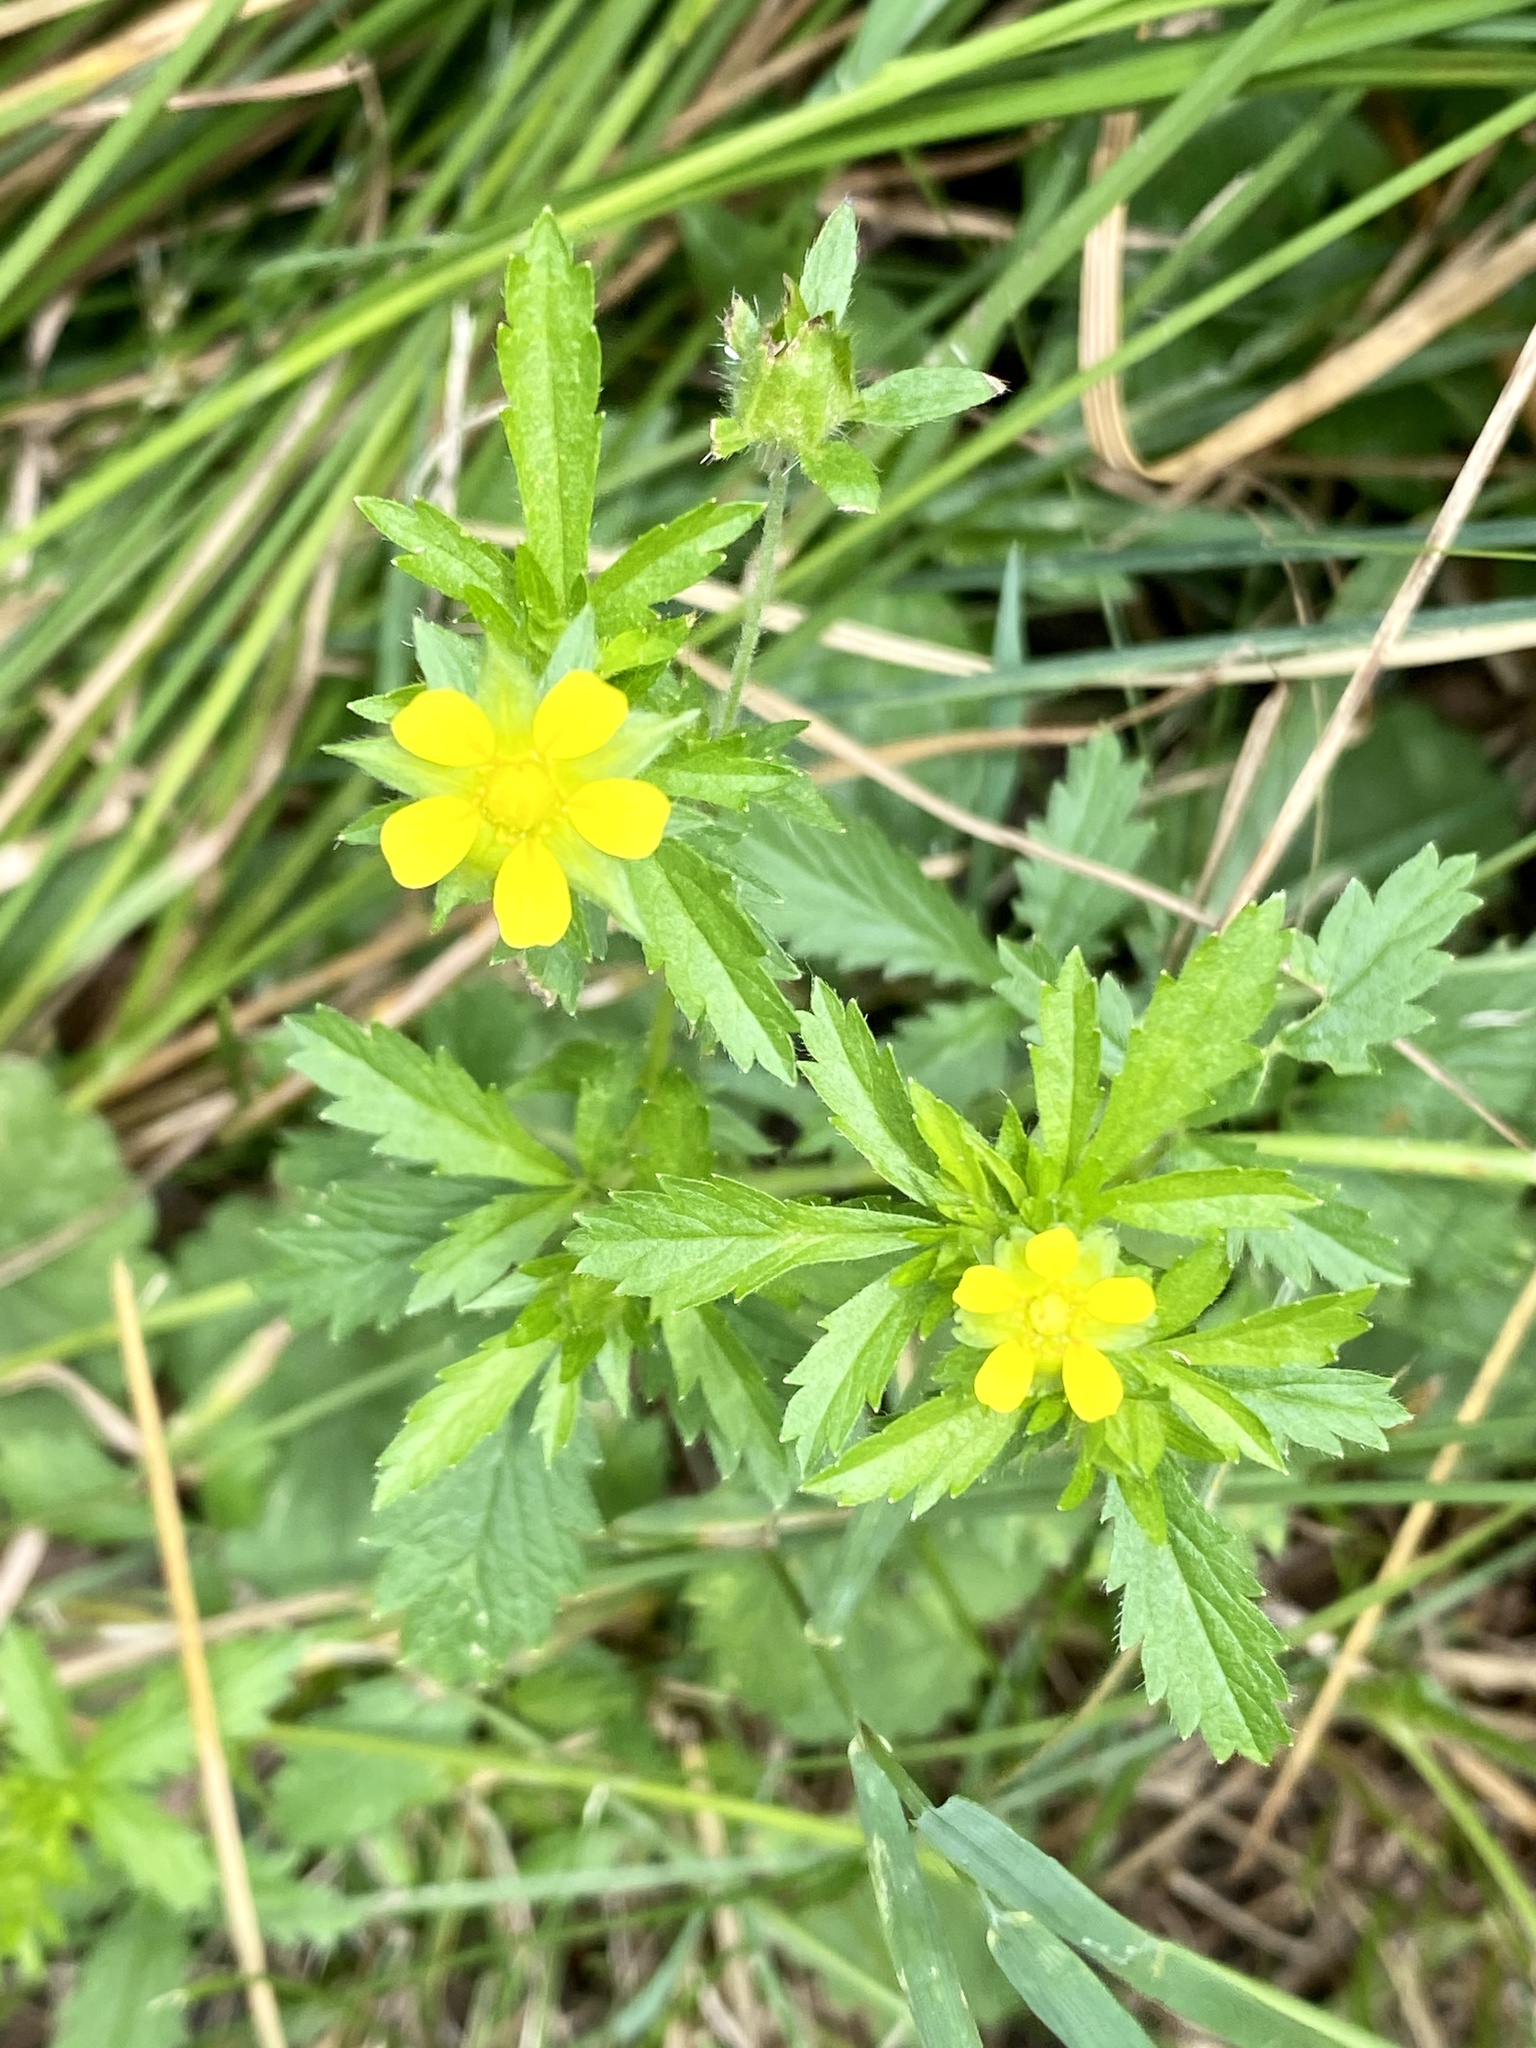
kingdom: Plantae
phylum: Tracheophyta
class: Magnoliopsida
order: Rosales
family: Rosaceae
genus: Potentilla
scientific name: Potentilla norvegica
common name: Ternate-leaved cinquefoil
